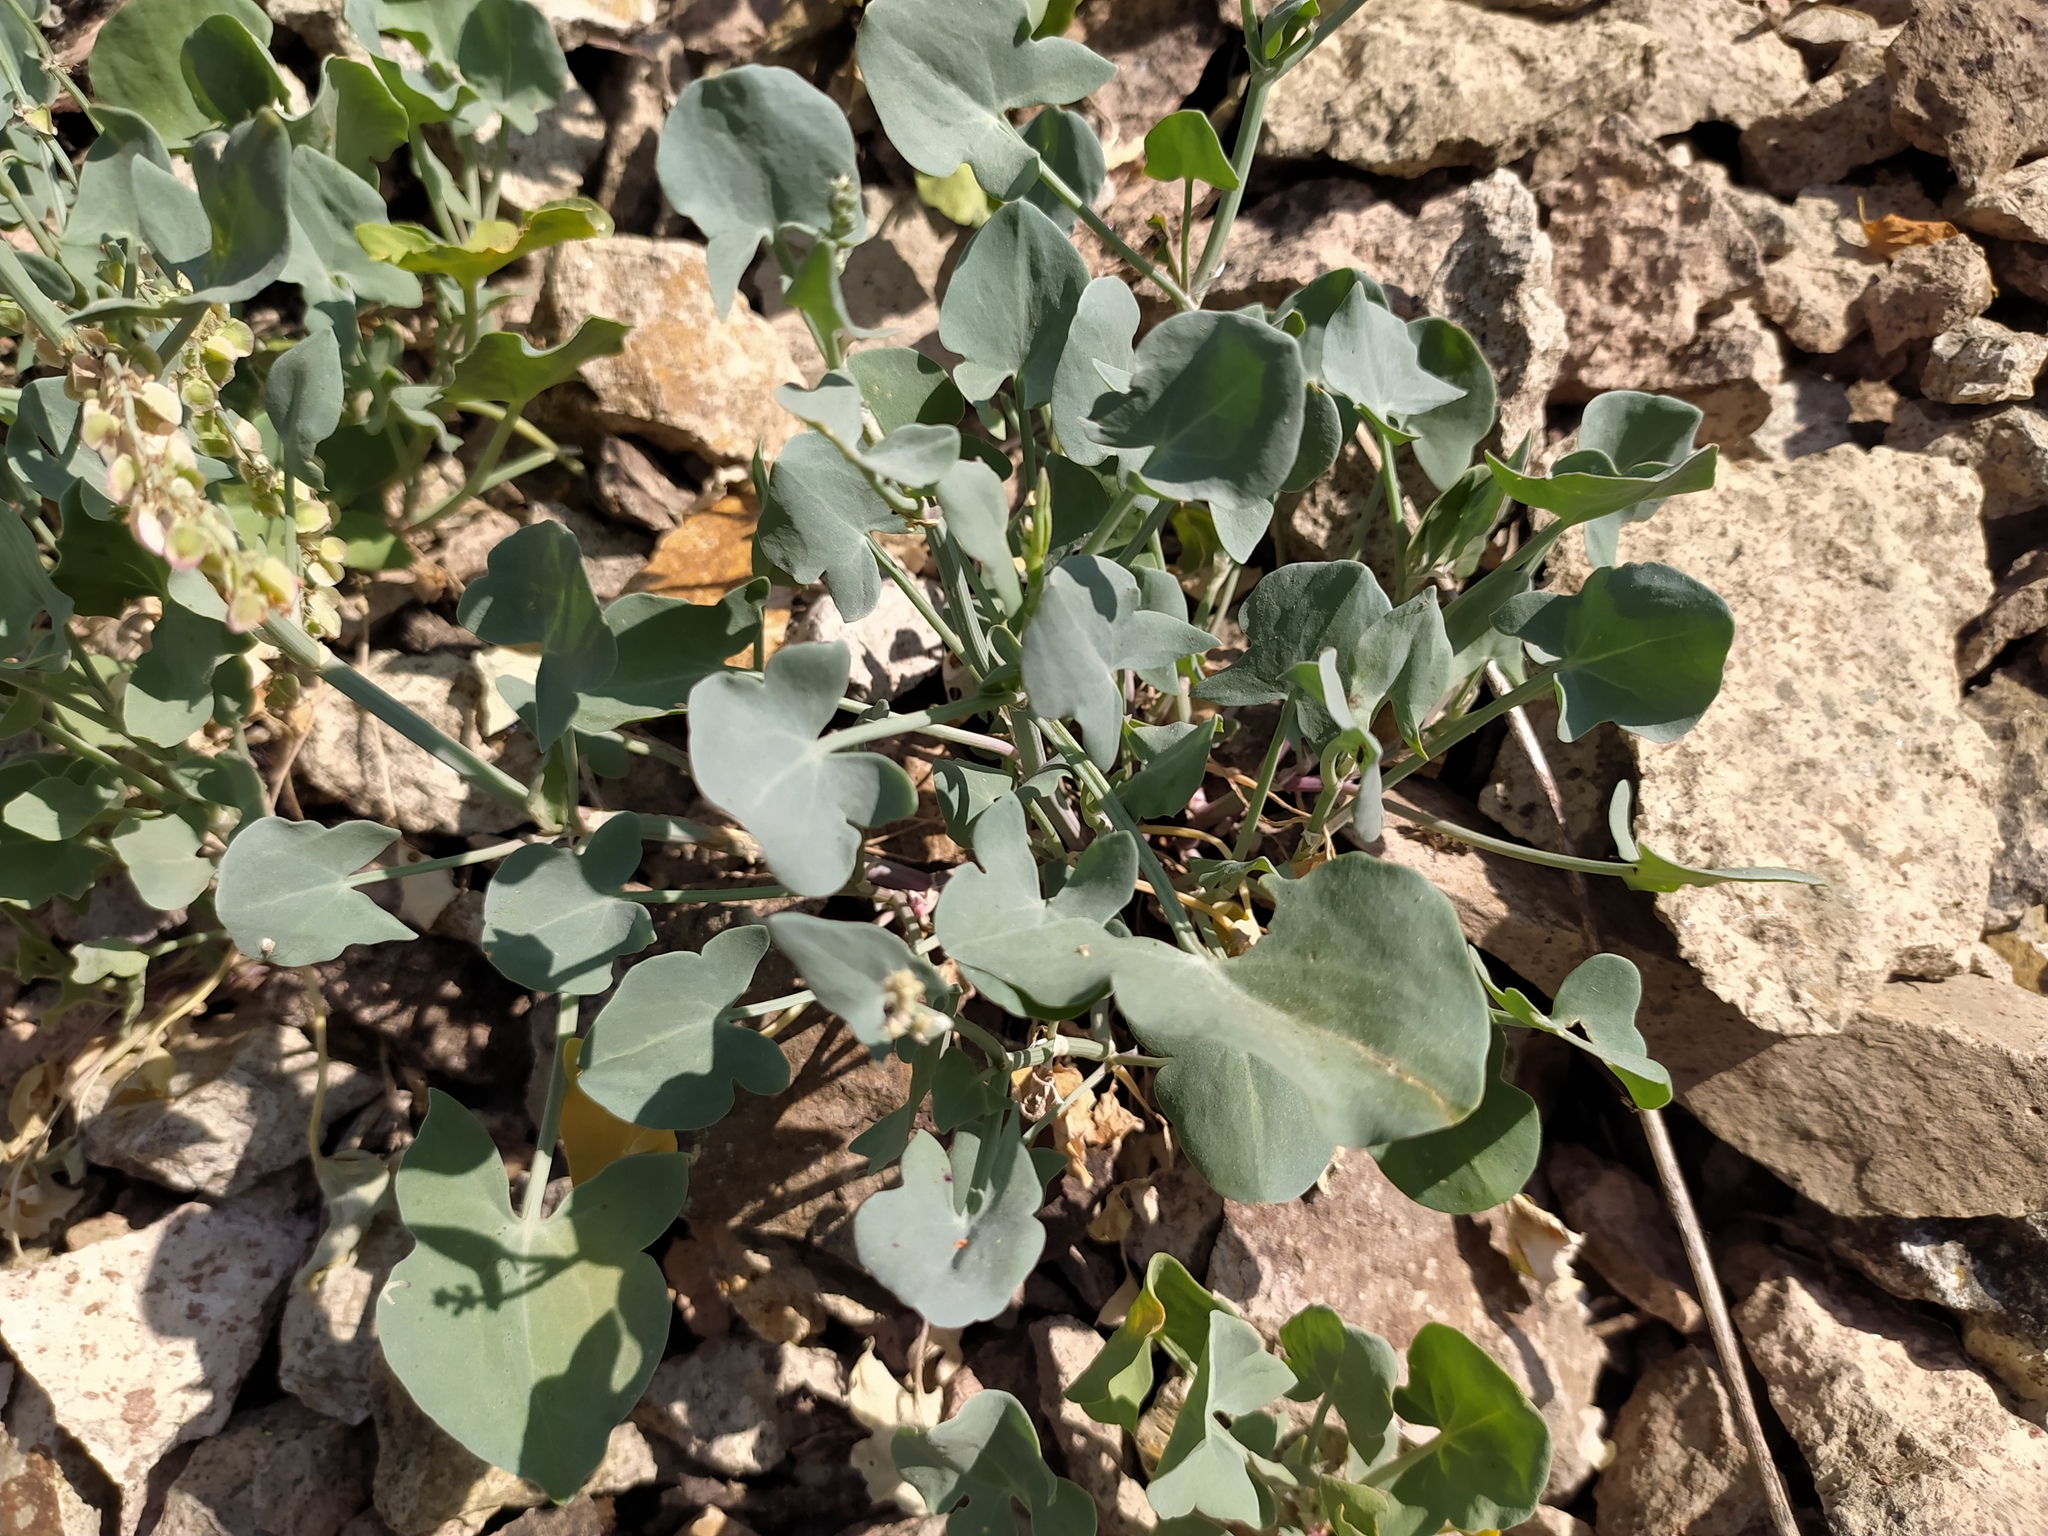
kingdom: Plantae
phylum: Tracheophyta
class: Magnoliopsida
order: Caryophyllales
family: Polygonaceae
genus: Rumex
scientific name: Rumex scutatus
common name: French sorrel
